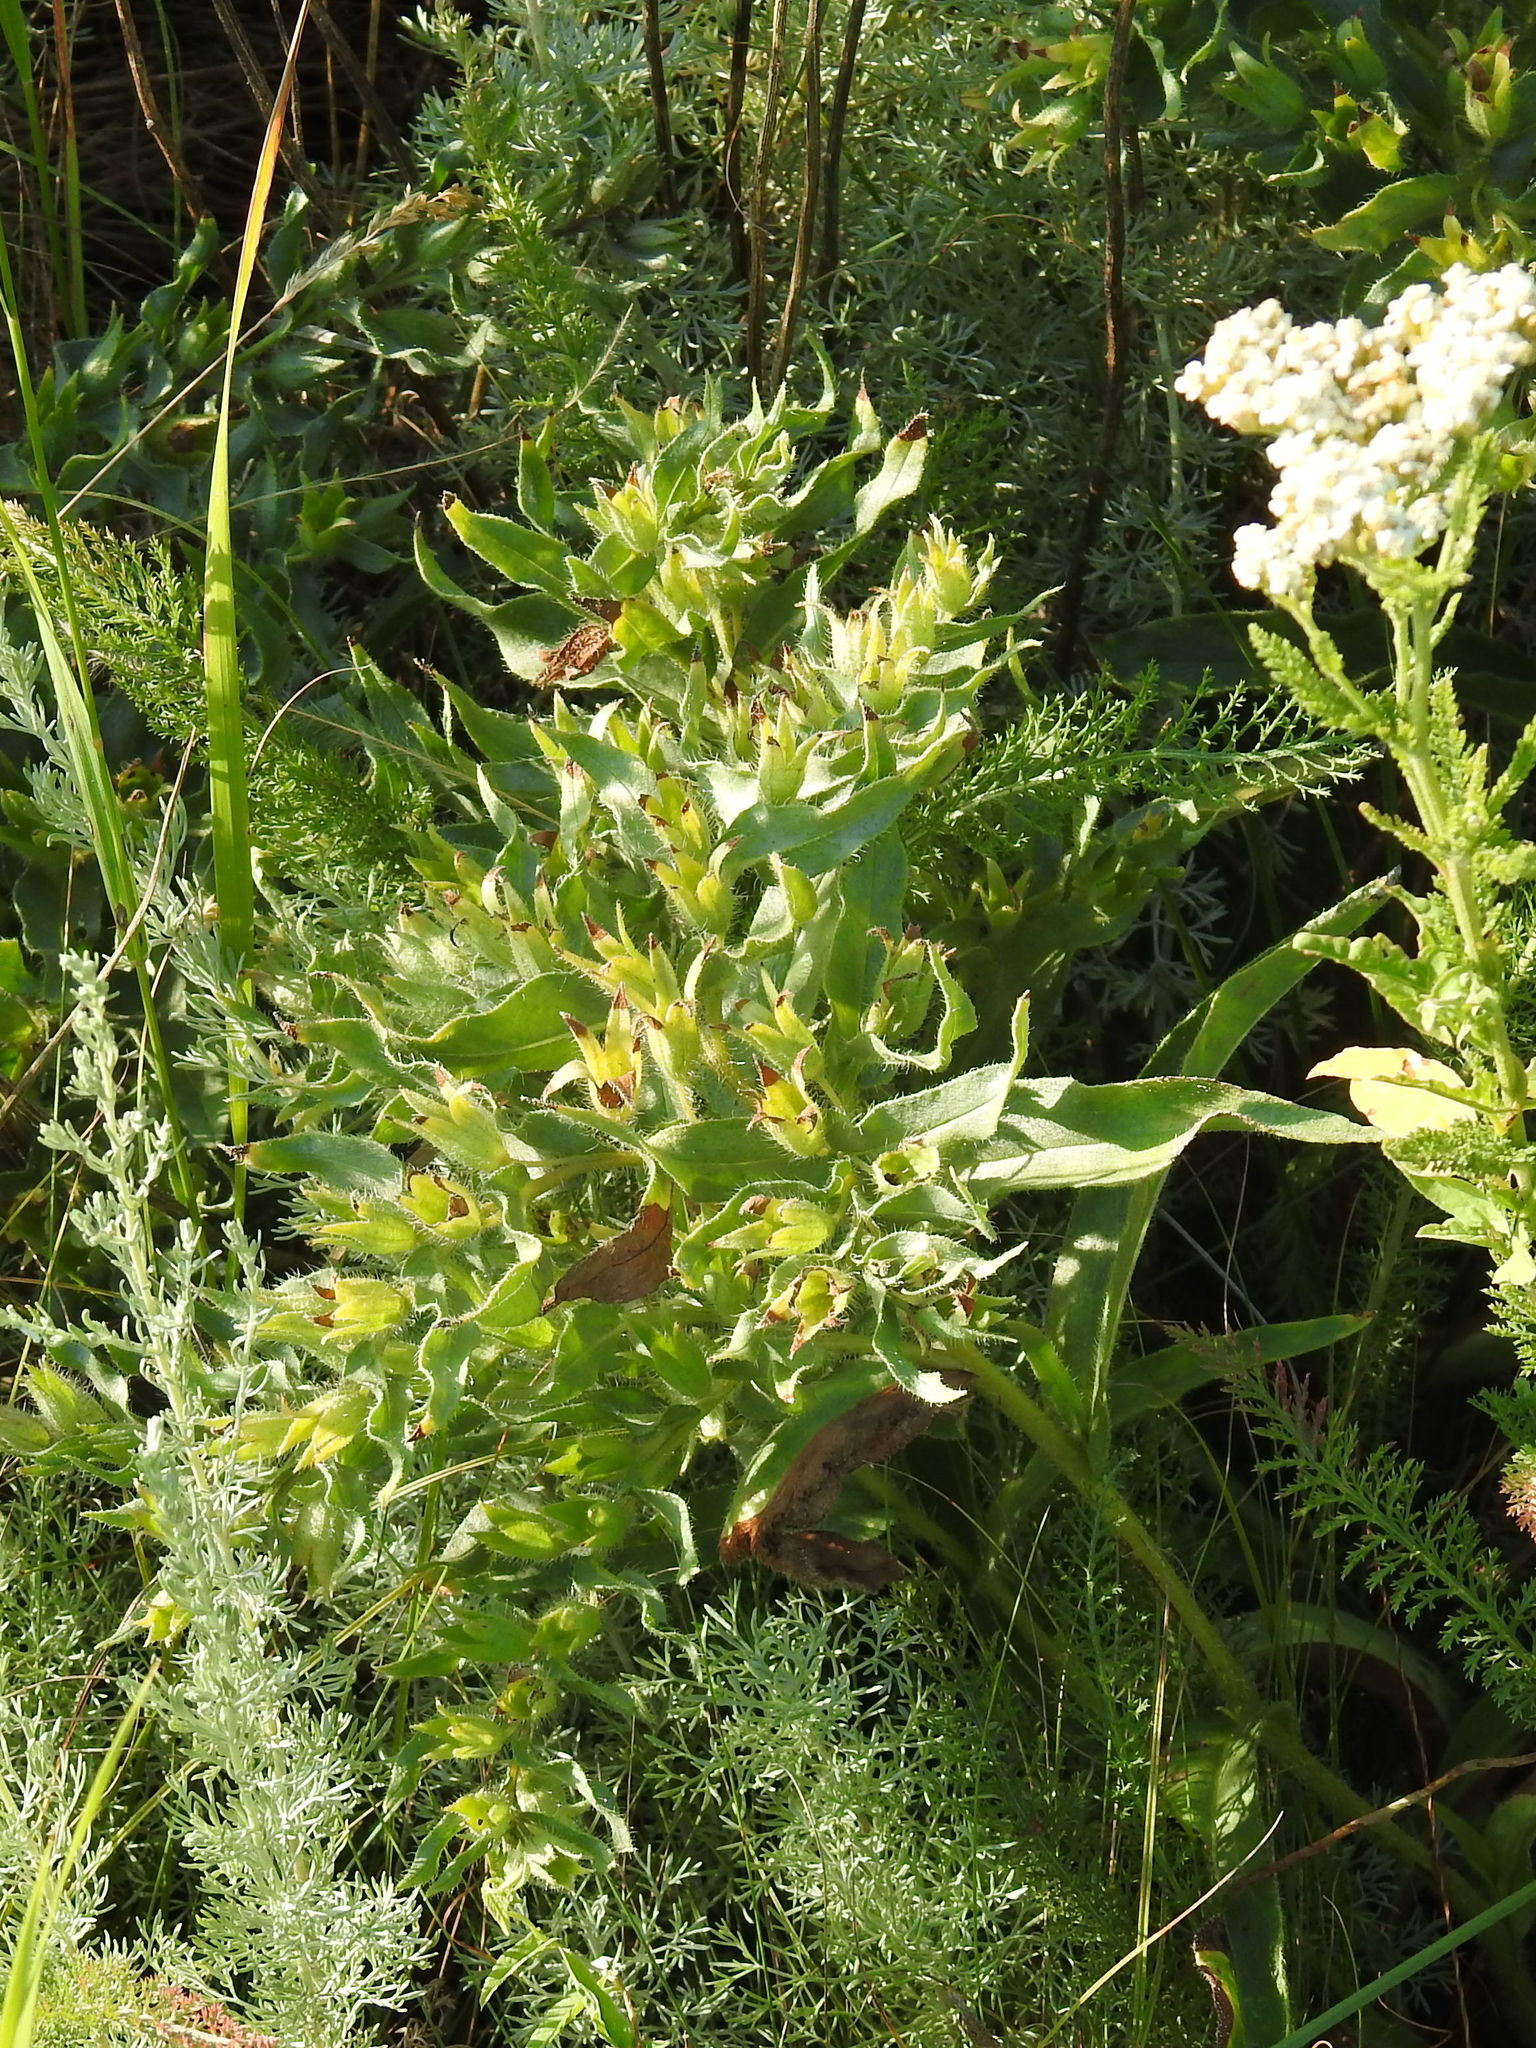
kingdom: Plantae
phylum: Tracheophyta
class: Magnoliopsida
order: Boraginales
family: Boraginaceae
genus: Nonea
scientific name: Nonea pulla
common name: Brown nonea
